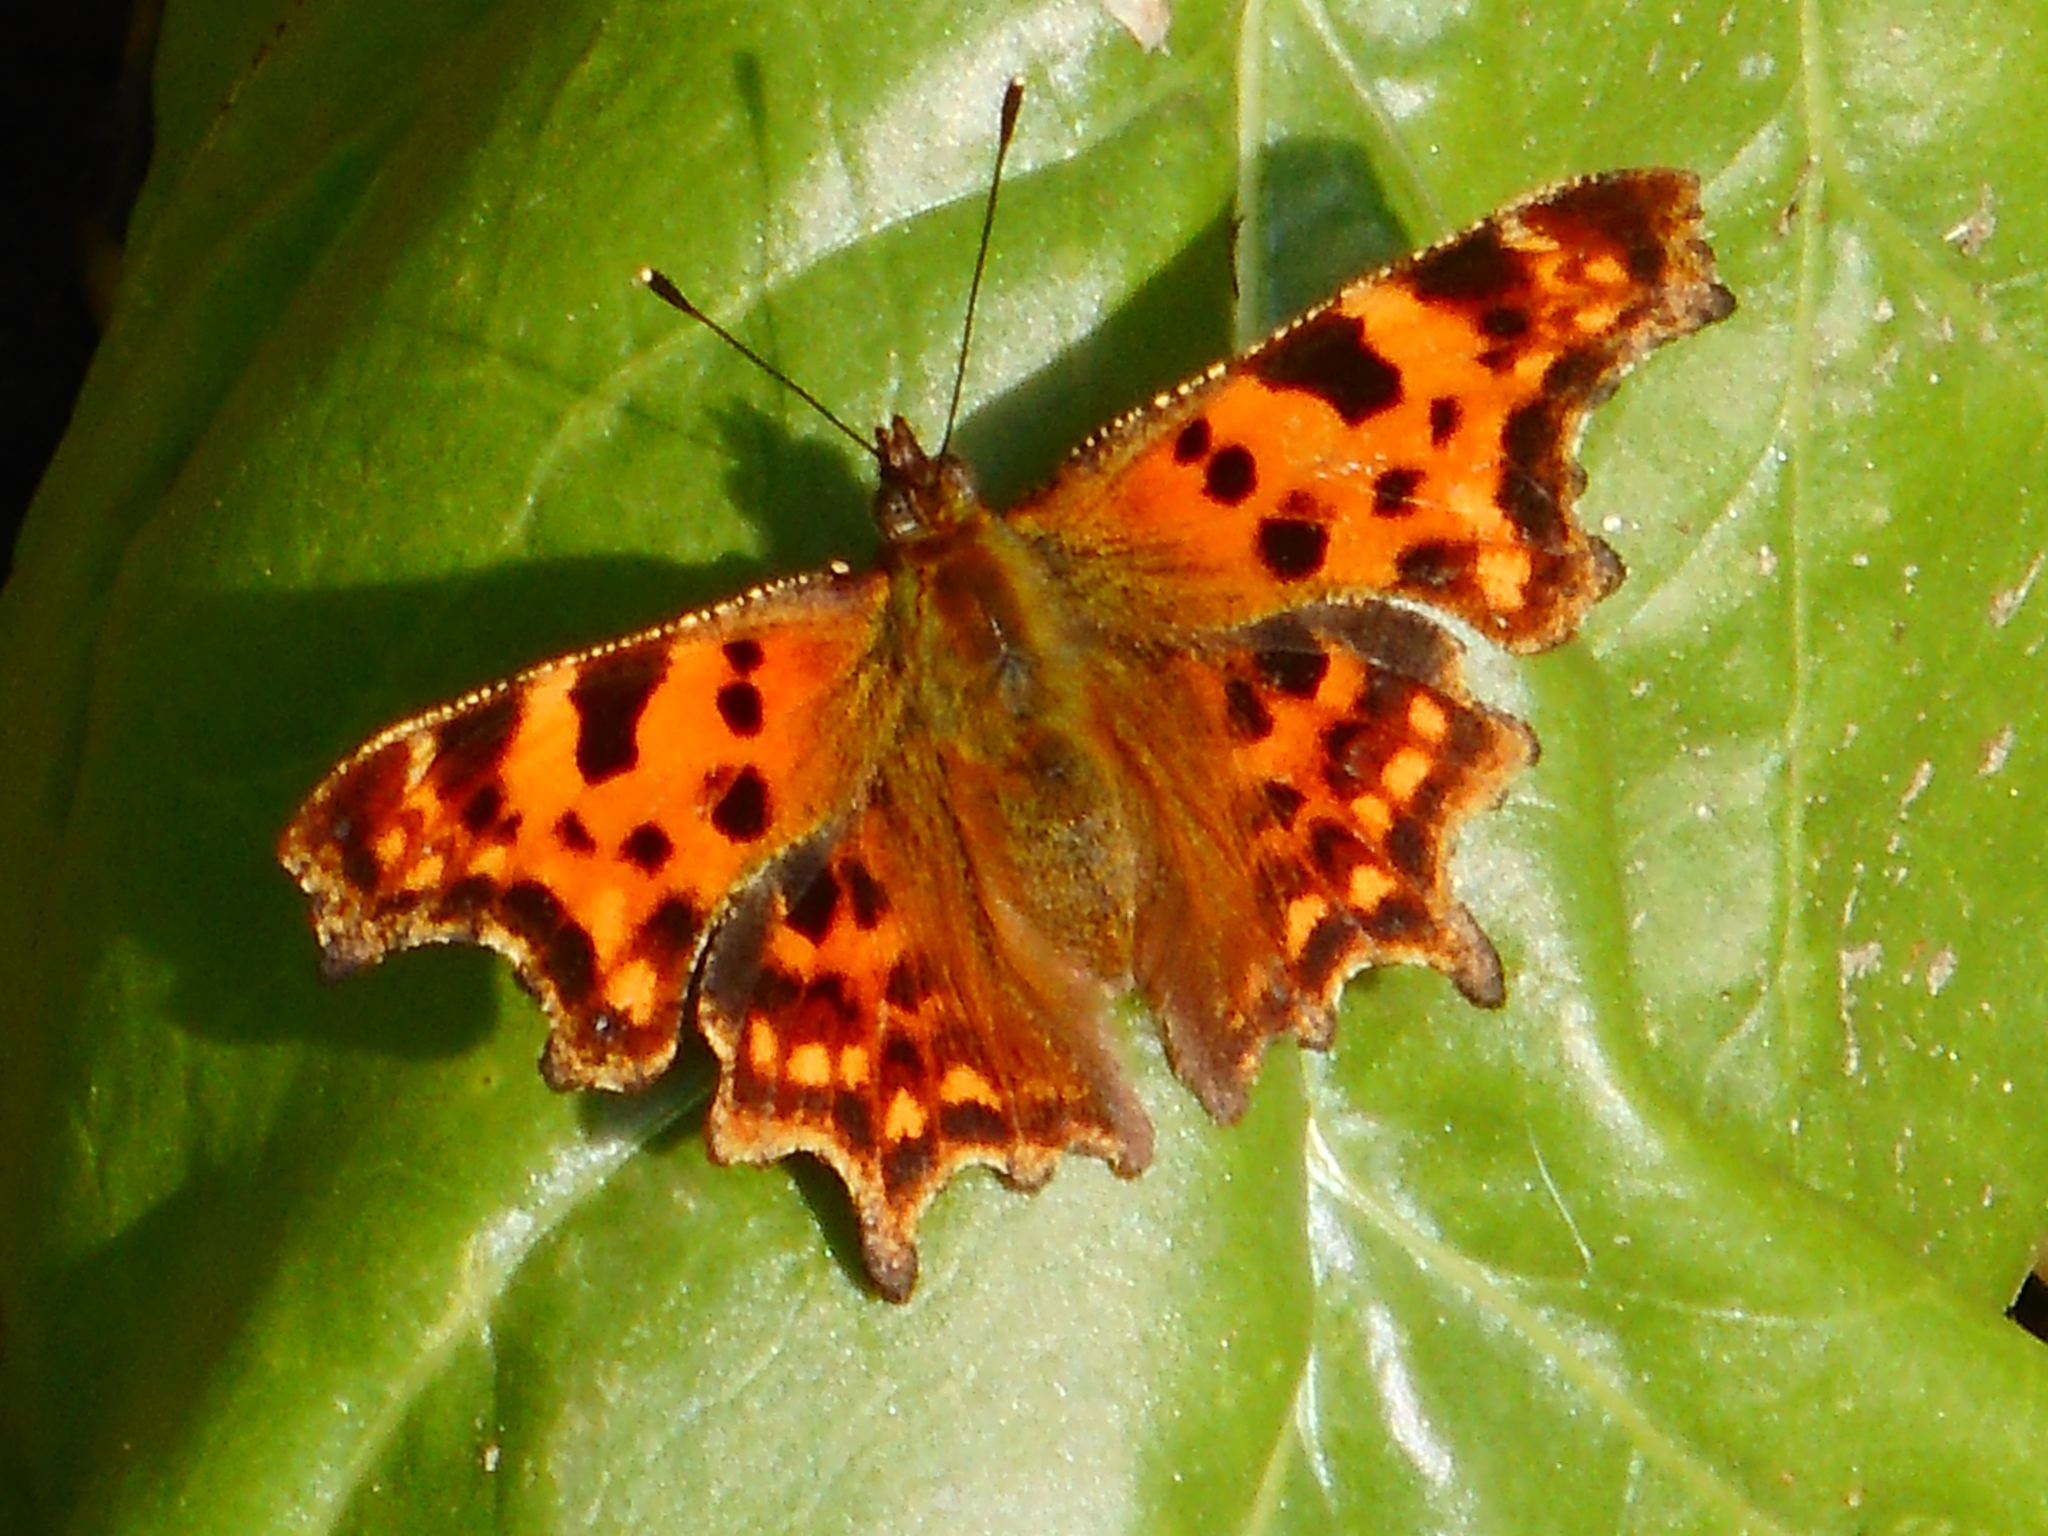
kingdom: Animalia
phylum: Arthropoda
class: Insecta
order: Lepidoptera
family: Nymphalidae
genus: Polygonia
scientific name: Polygonia c-album
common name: Comma
